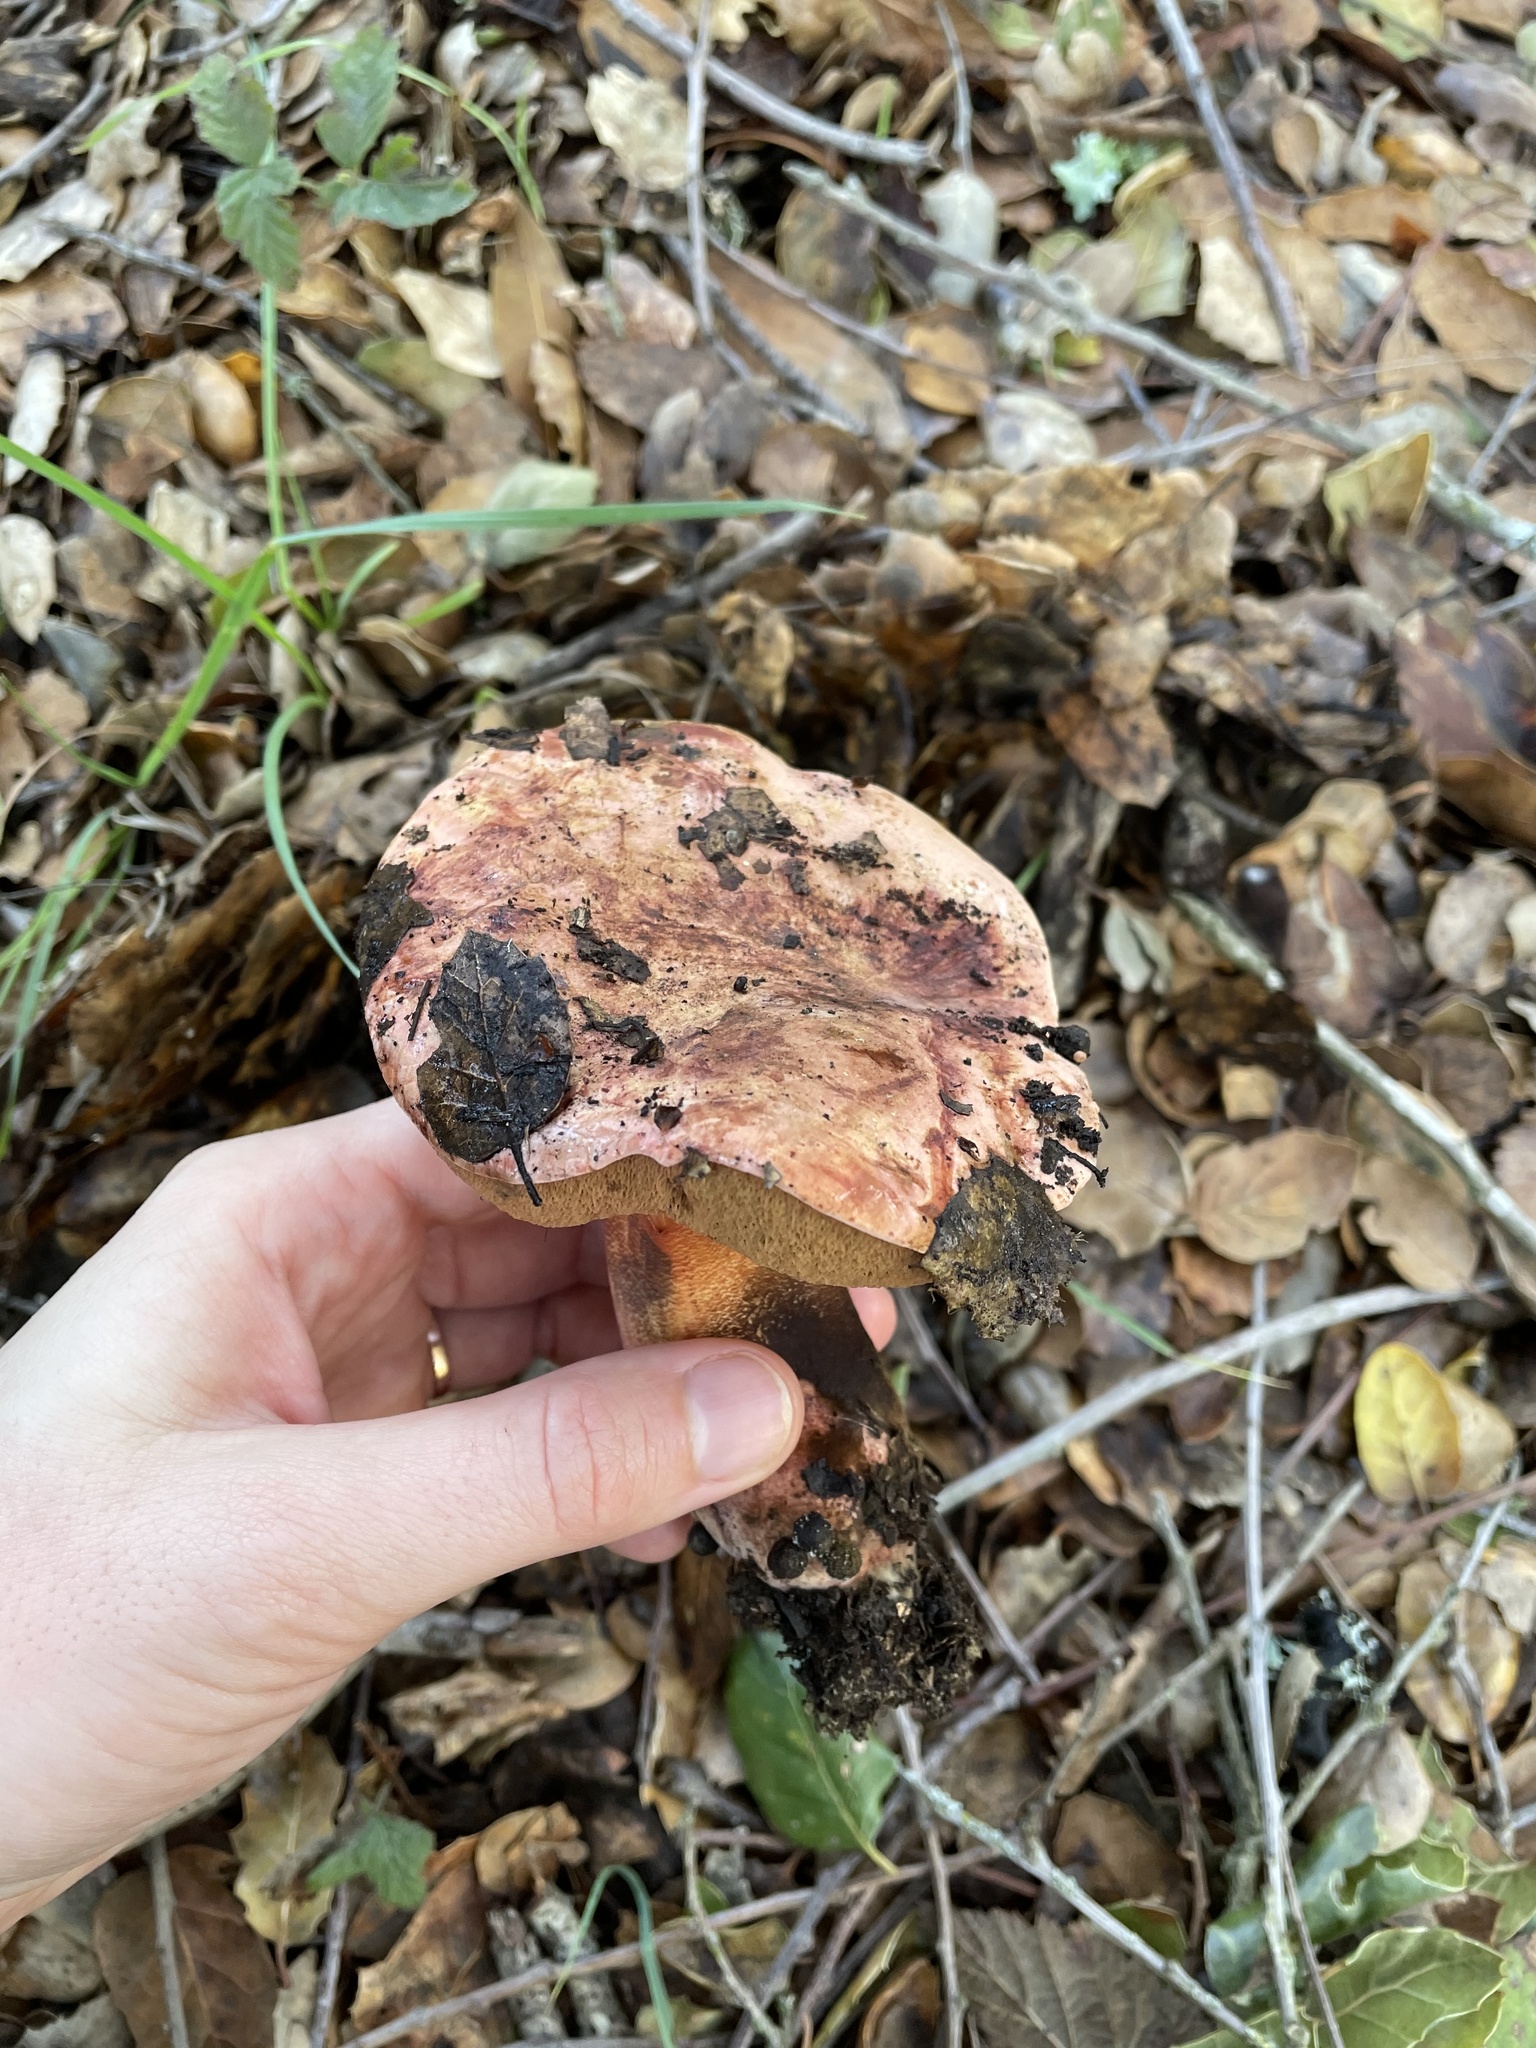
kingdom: Fungi
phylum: Basidiomycota
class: Agaricomycetes
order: Boletales
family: Boletaceae
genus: Suillellus
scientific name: Suillellus amygdalinus
